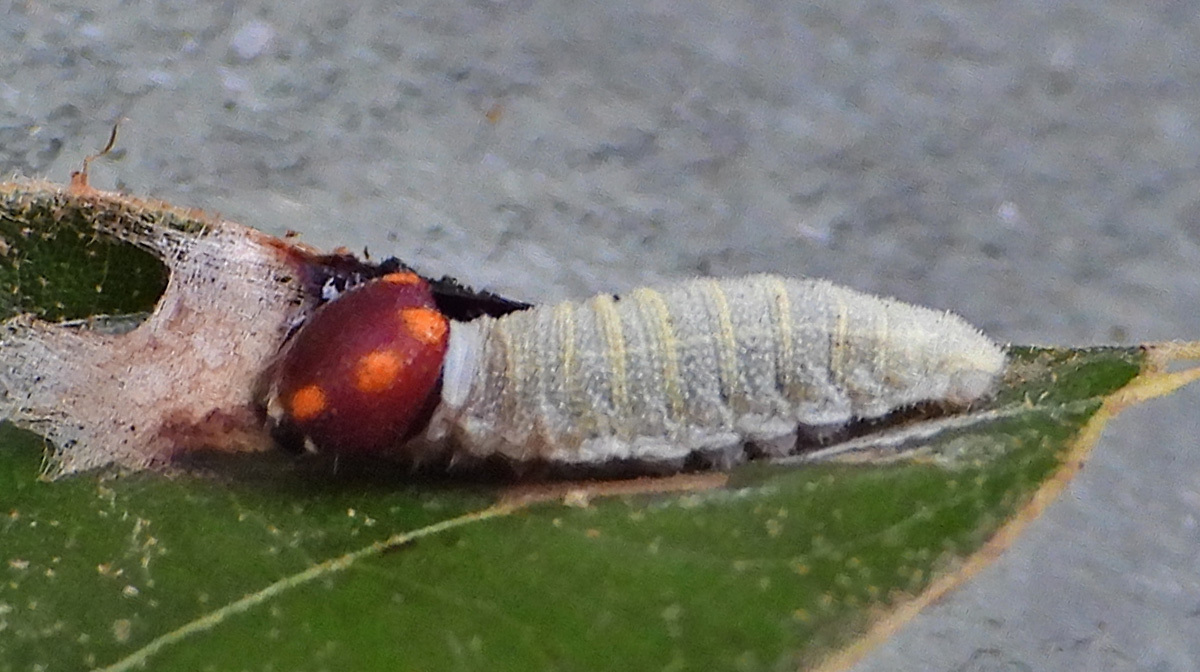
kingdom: Animalia
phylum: Arthropoda
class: Insecta
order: Lepidoptera
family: Hesperiidae
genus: Erynnis
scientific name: Erynnis horatius
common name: Horace's duskywing
